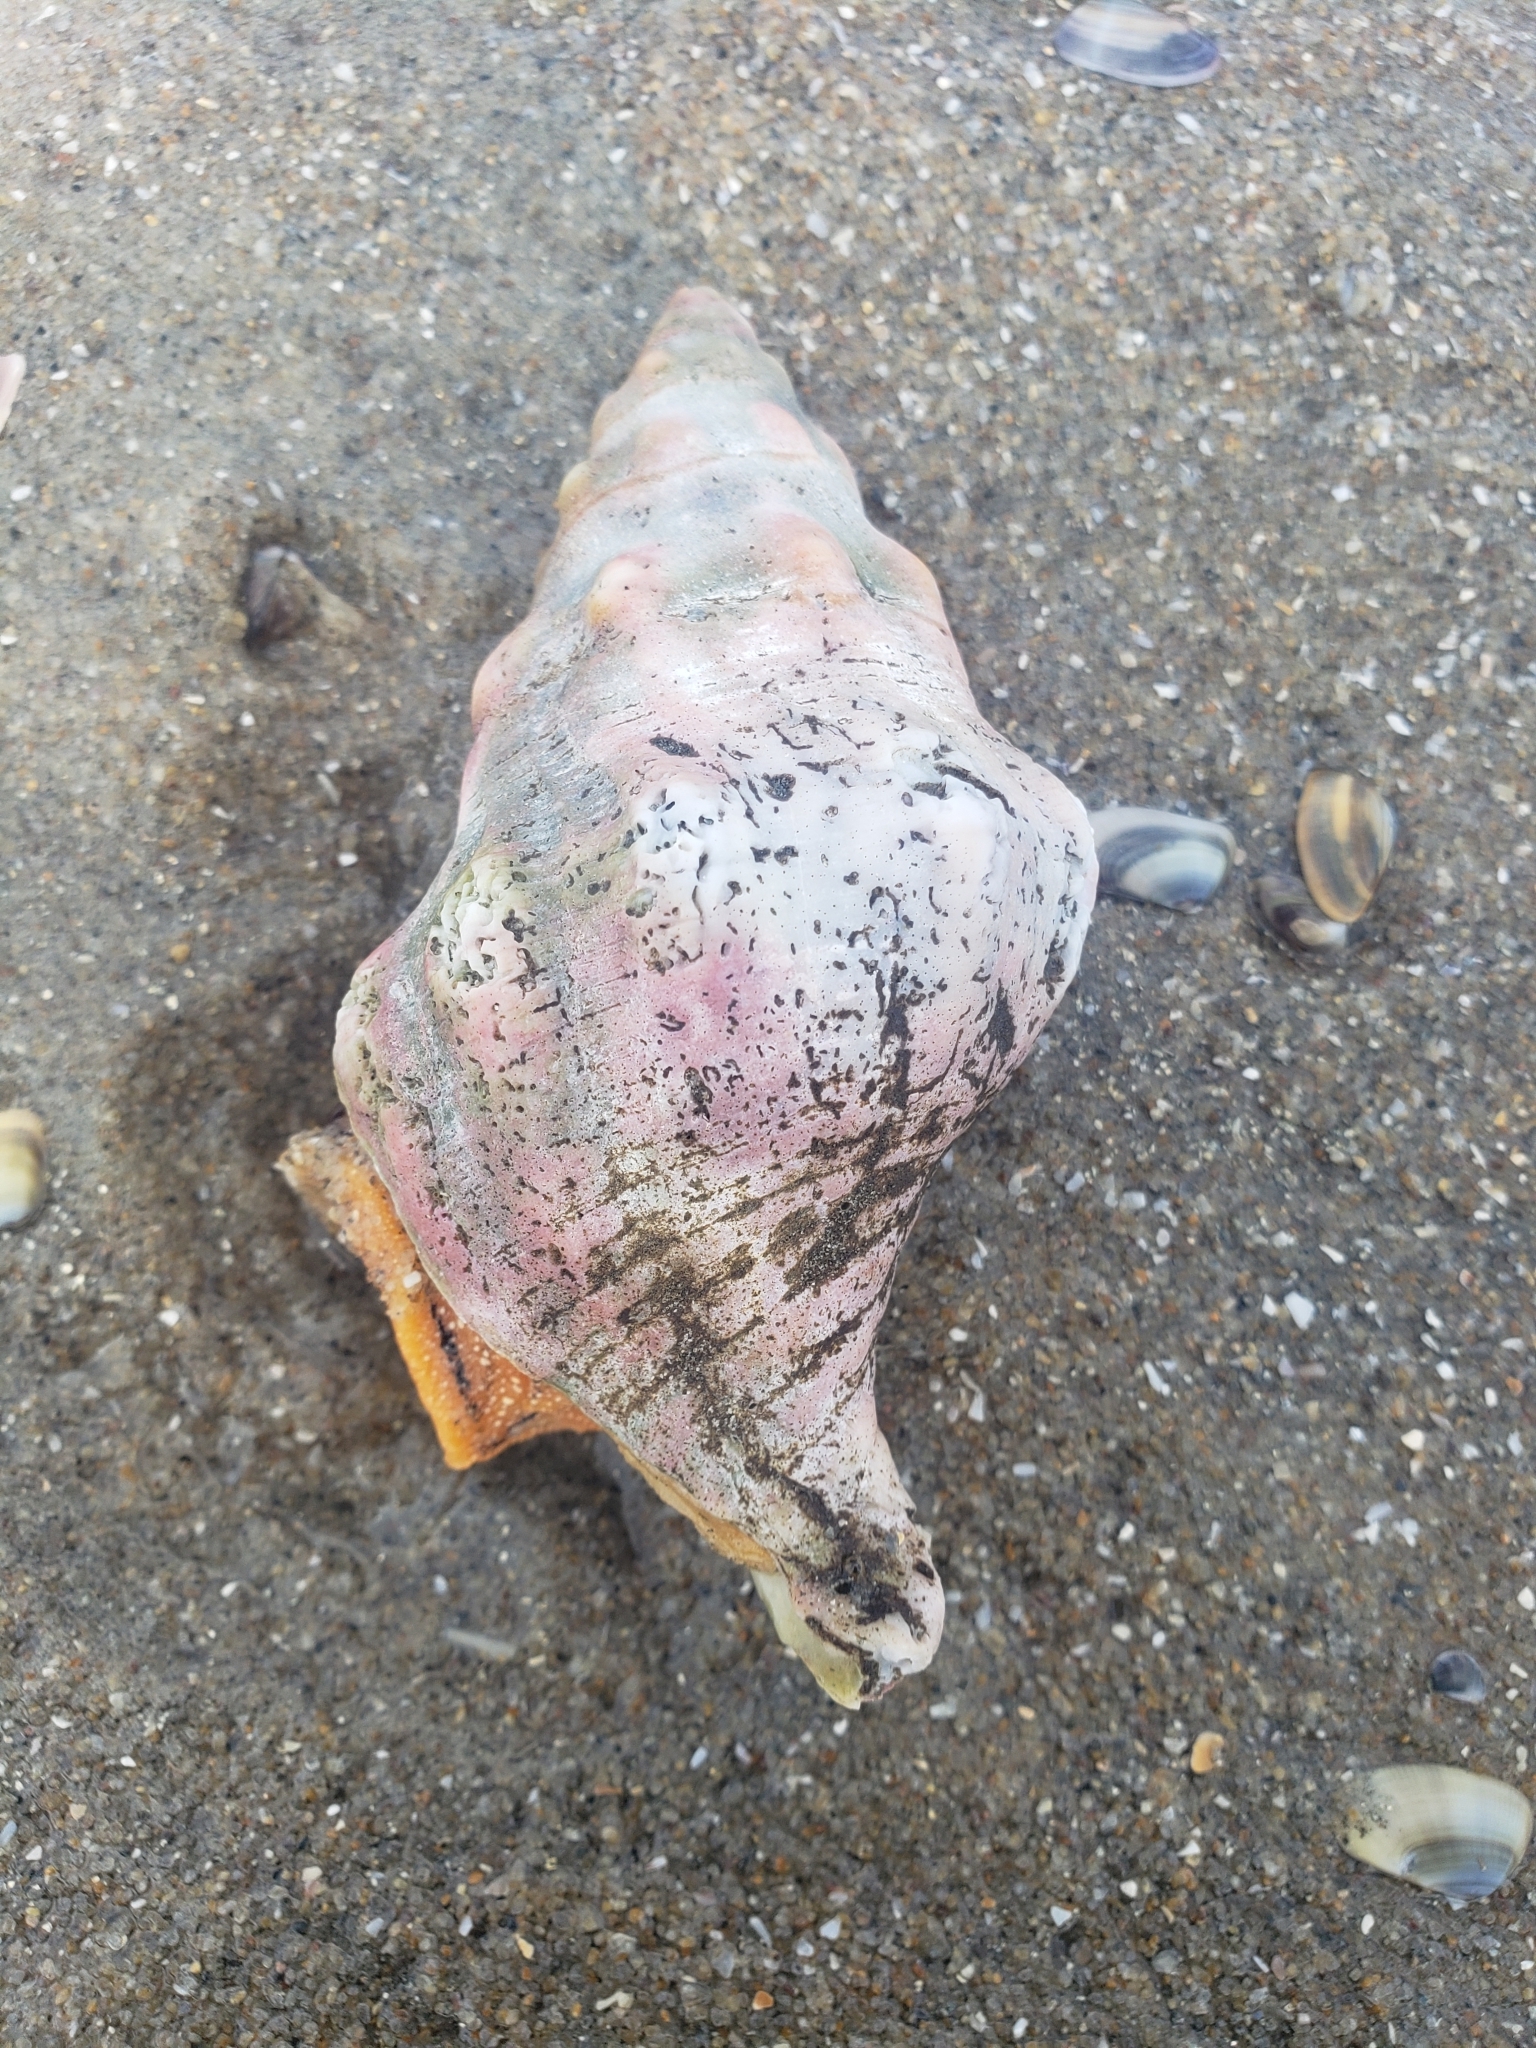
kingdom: Animalia
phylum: Mollusca
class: Gastropoda
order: Neogastropoda
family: Austrosiphonidae
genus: Kelletia
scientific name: Kelletia kelletii
